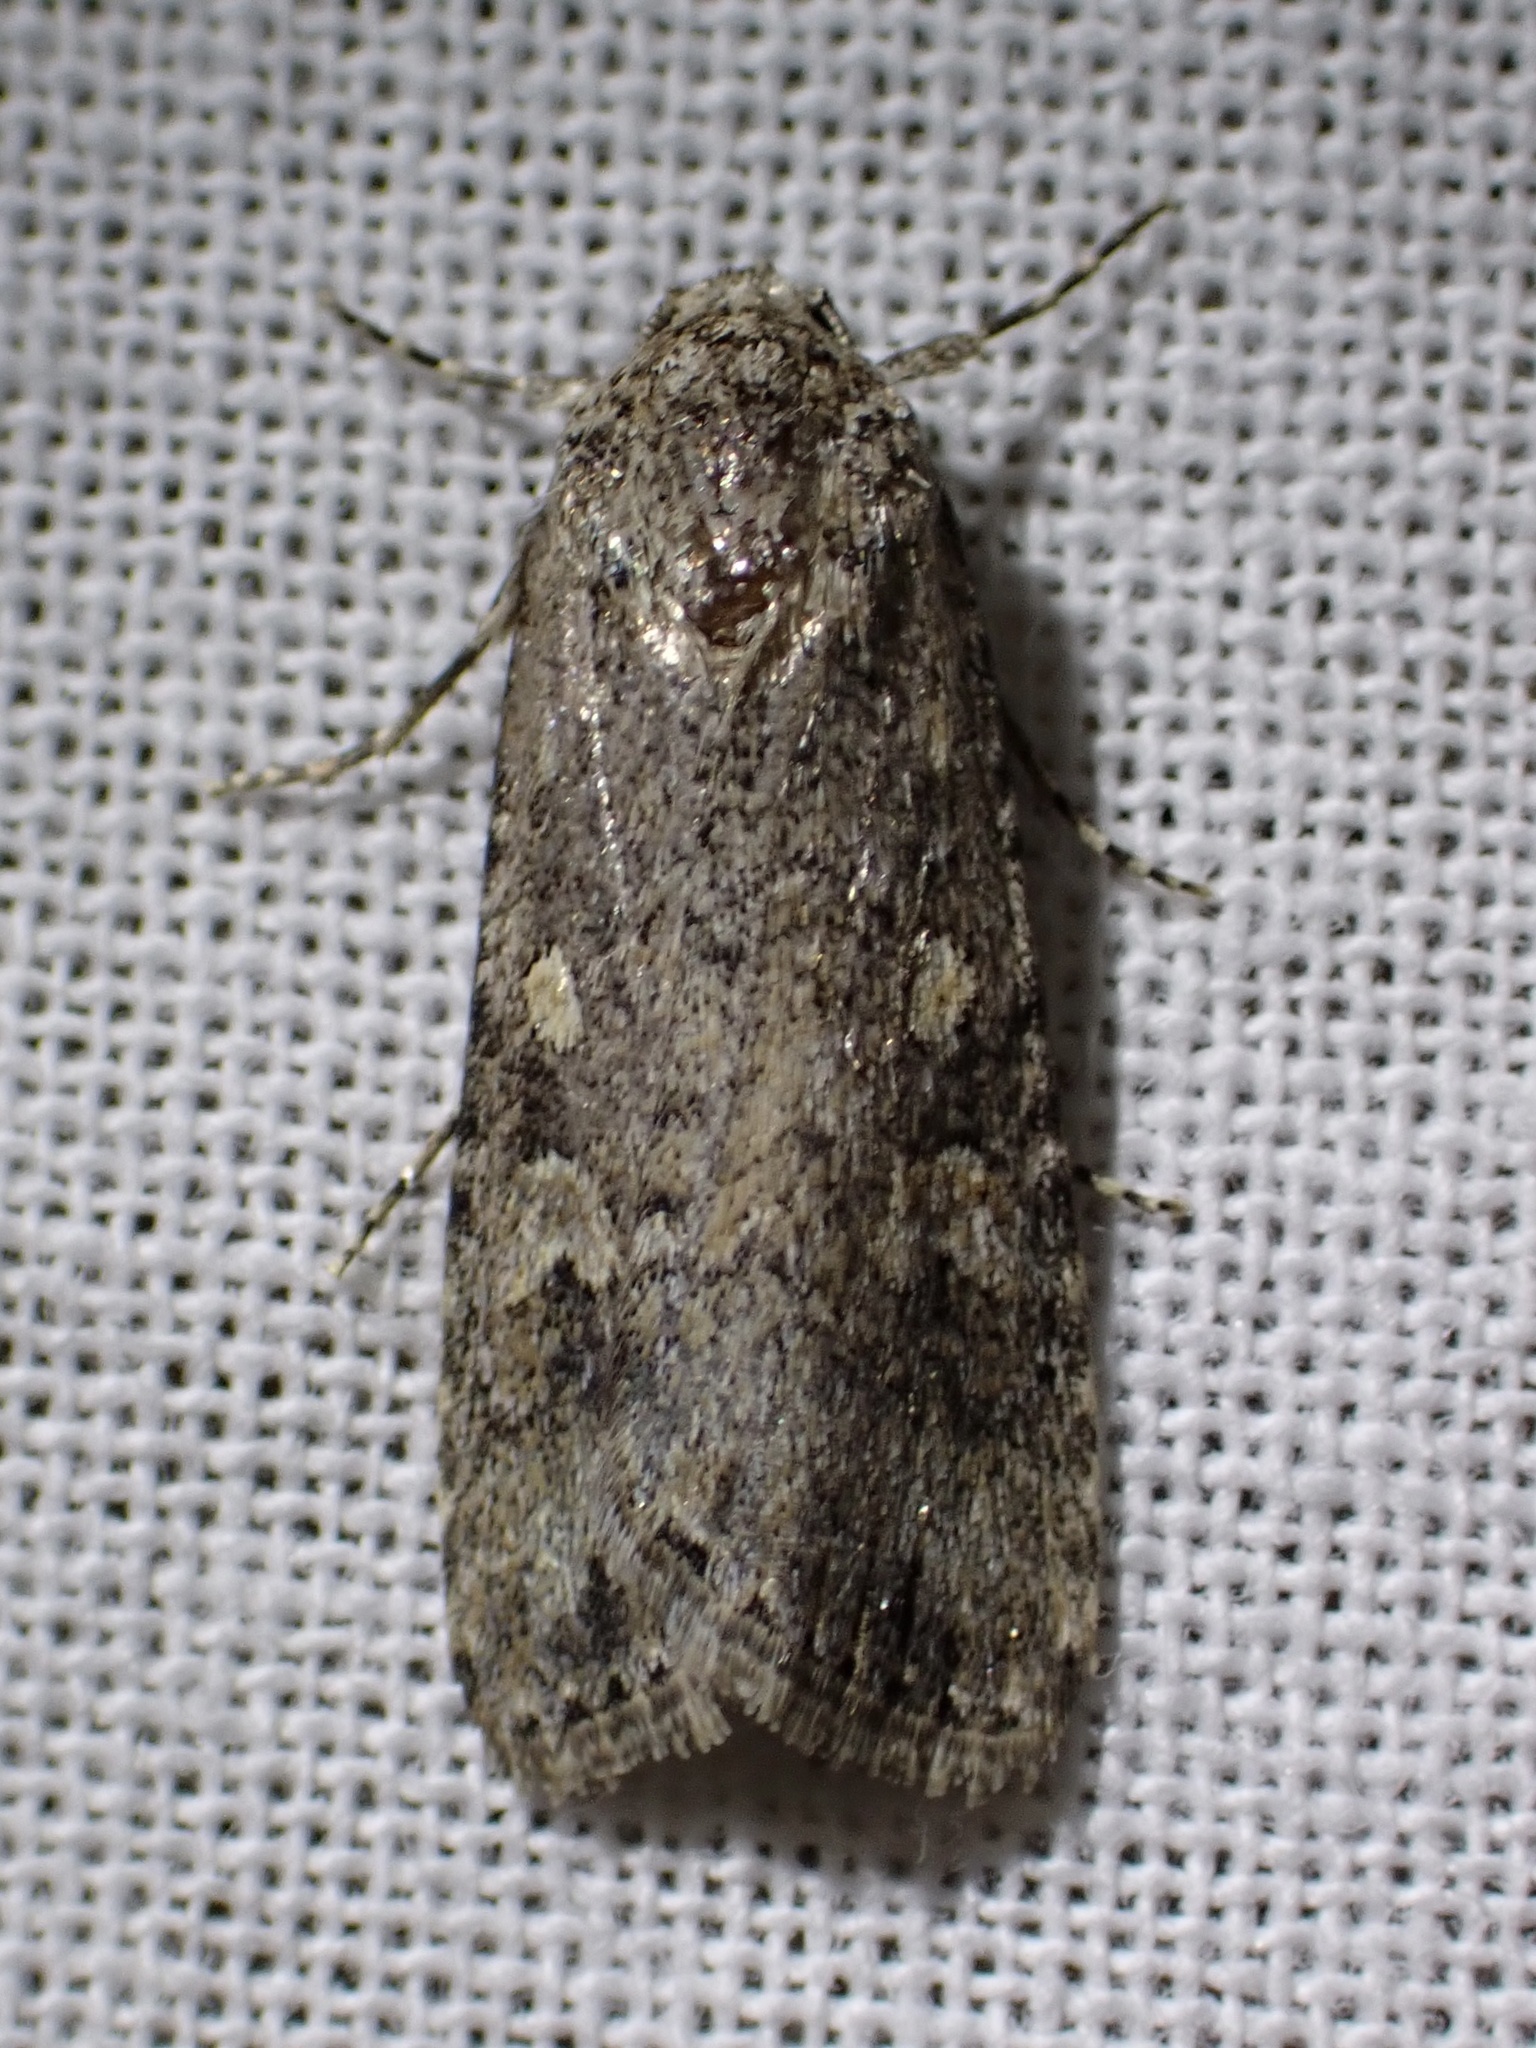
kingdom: Animalia
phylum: Arthropoda
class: Insecta
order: Lepidoptera
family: Noctuidae
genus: Spodoptera
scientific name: Spodoptera exigua
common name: Beet armyworm
